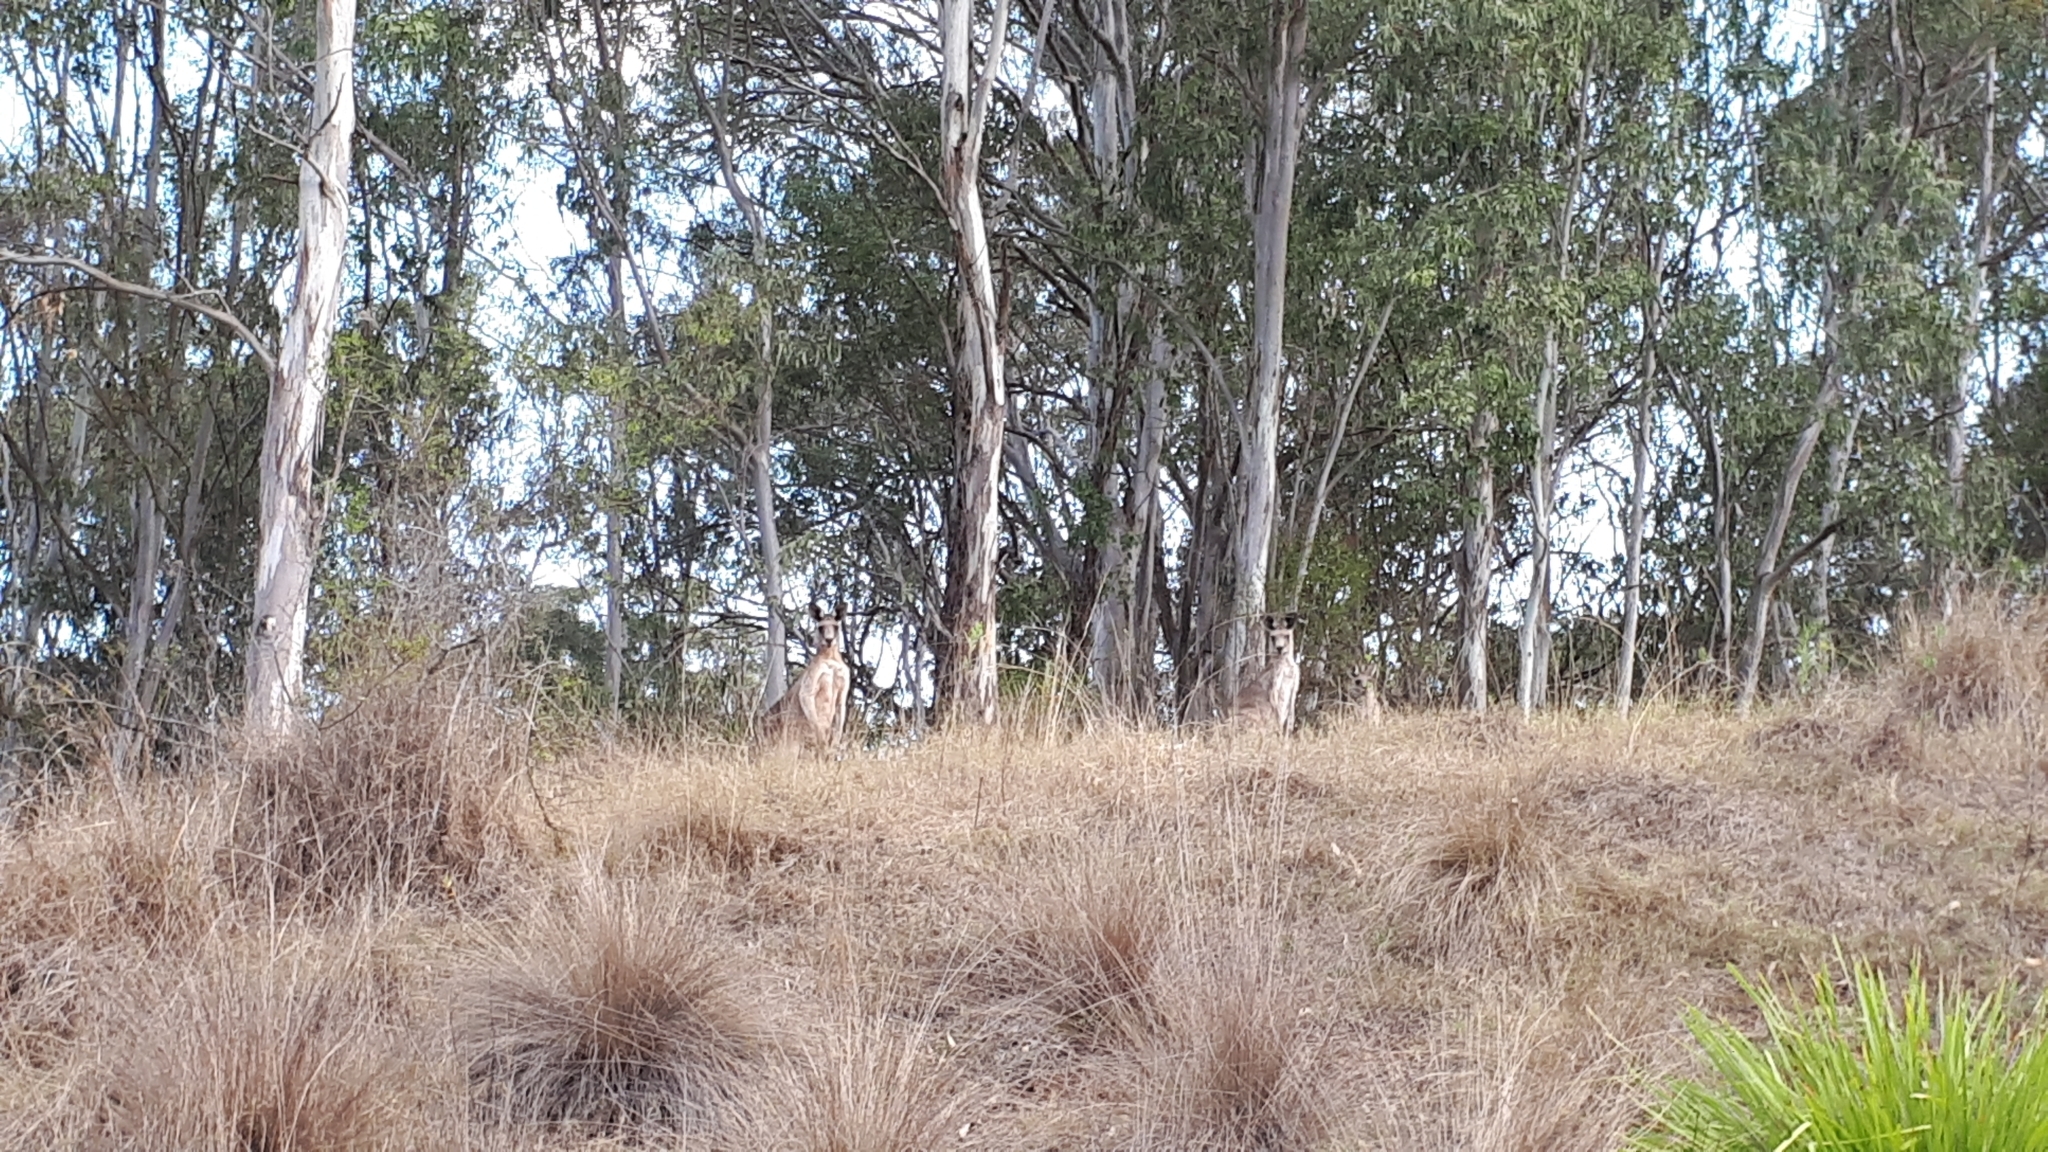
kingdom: Animalia
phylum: Chordata
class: Mammalia
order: Diprotodontia
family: Macropodidae
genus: Macropus
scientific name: Macropus giganteus
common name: Eastern grey kangaroo
